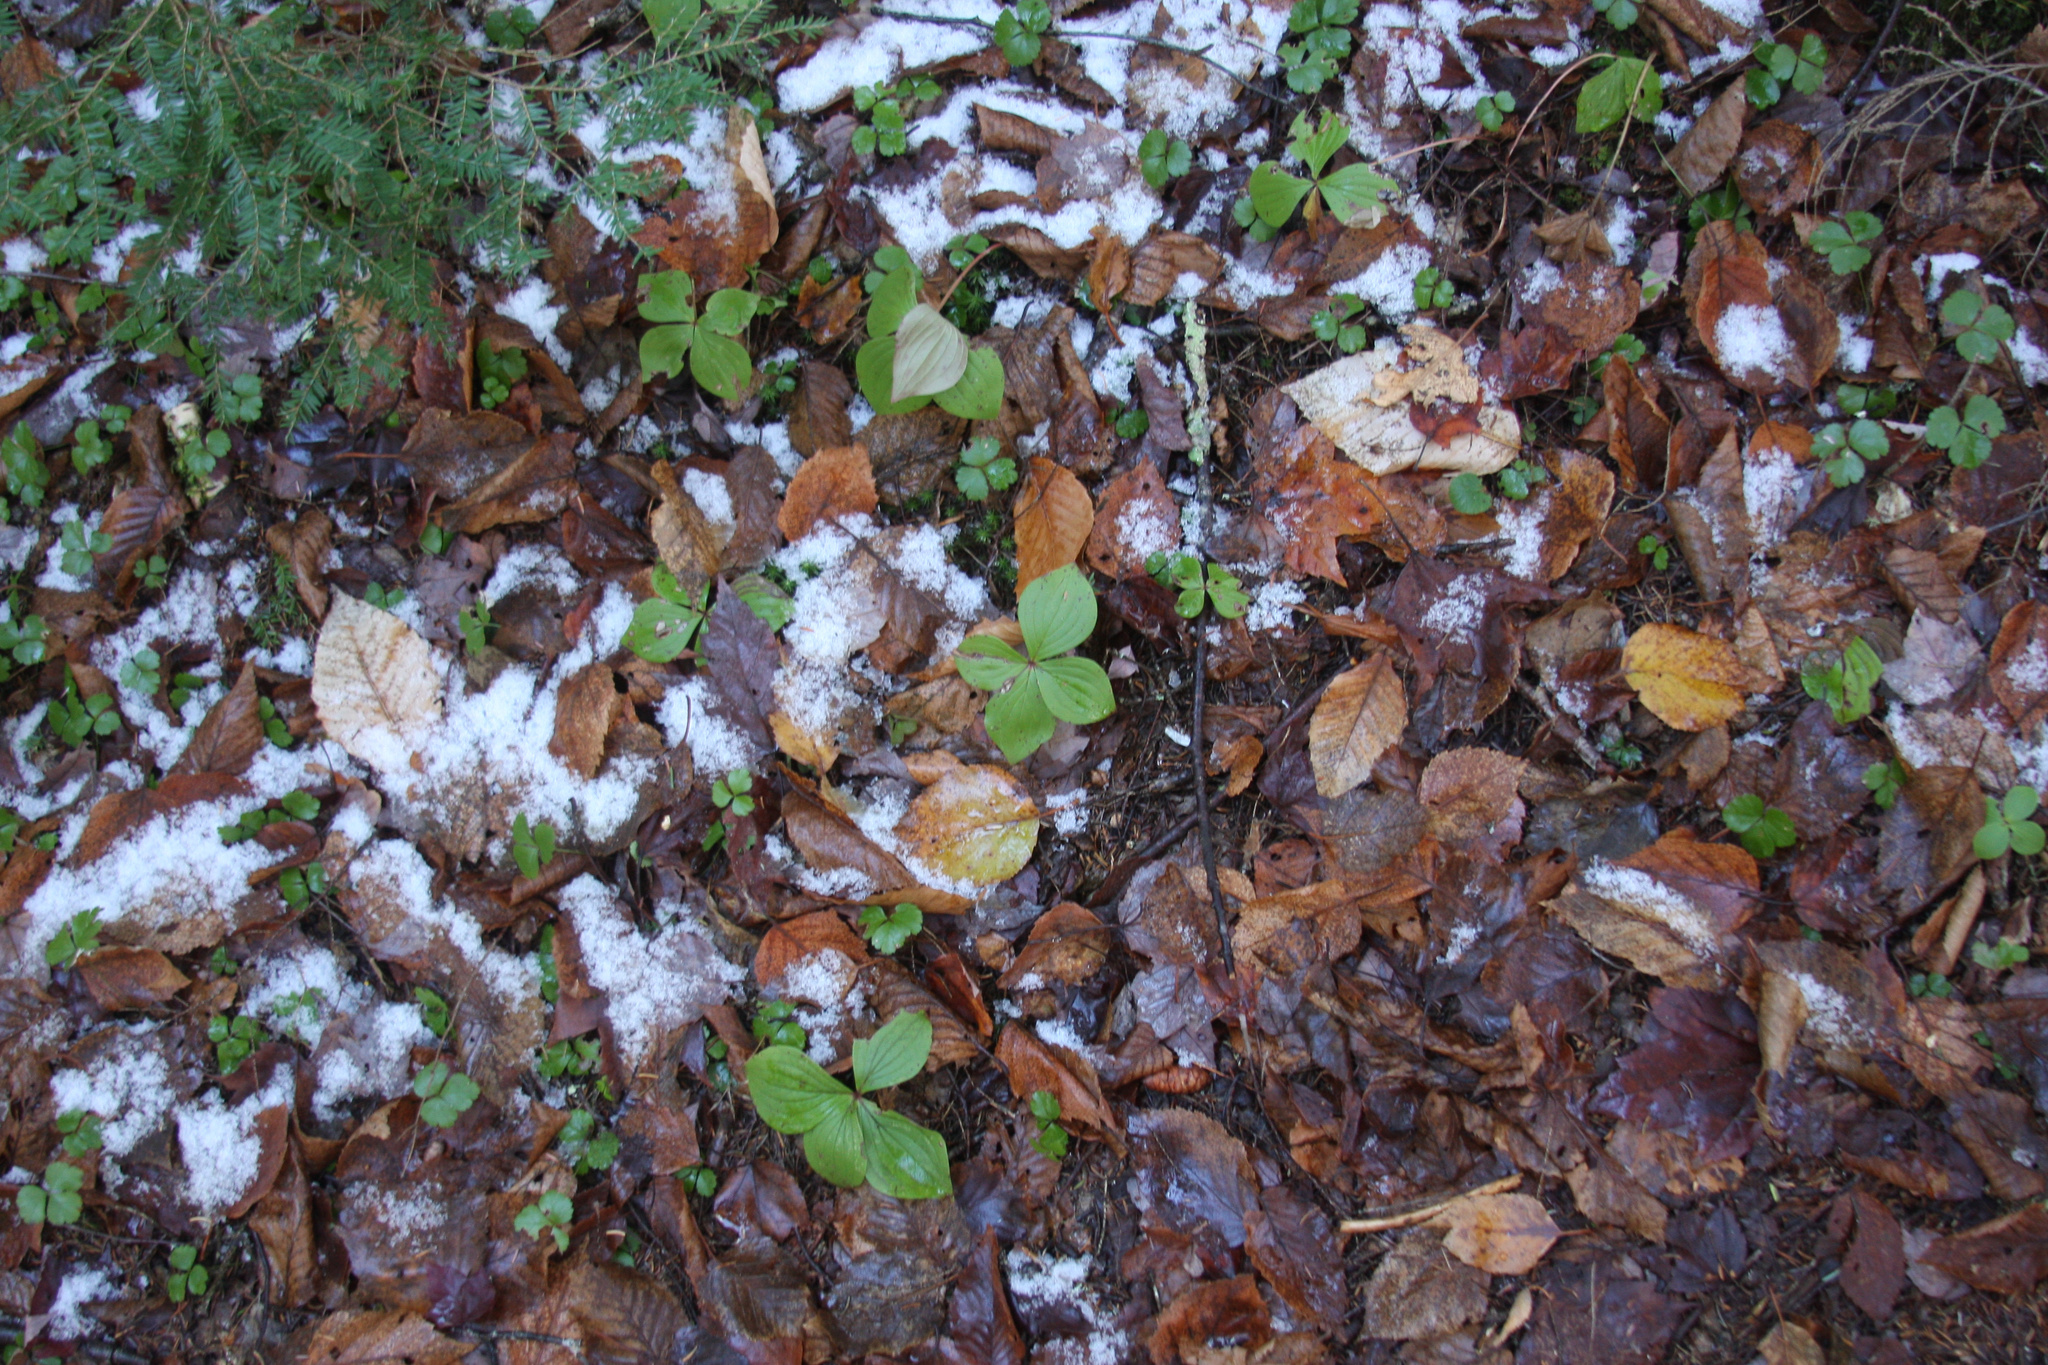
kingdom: Plantae
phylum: Tracheophyta
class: Magnoliopsida
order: Cornales
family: Cornaceae
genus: Cornus
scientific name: Cornus canadensis
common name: Creeping dogwood
